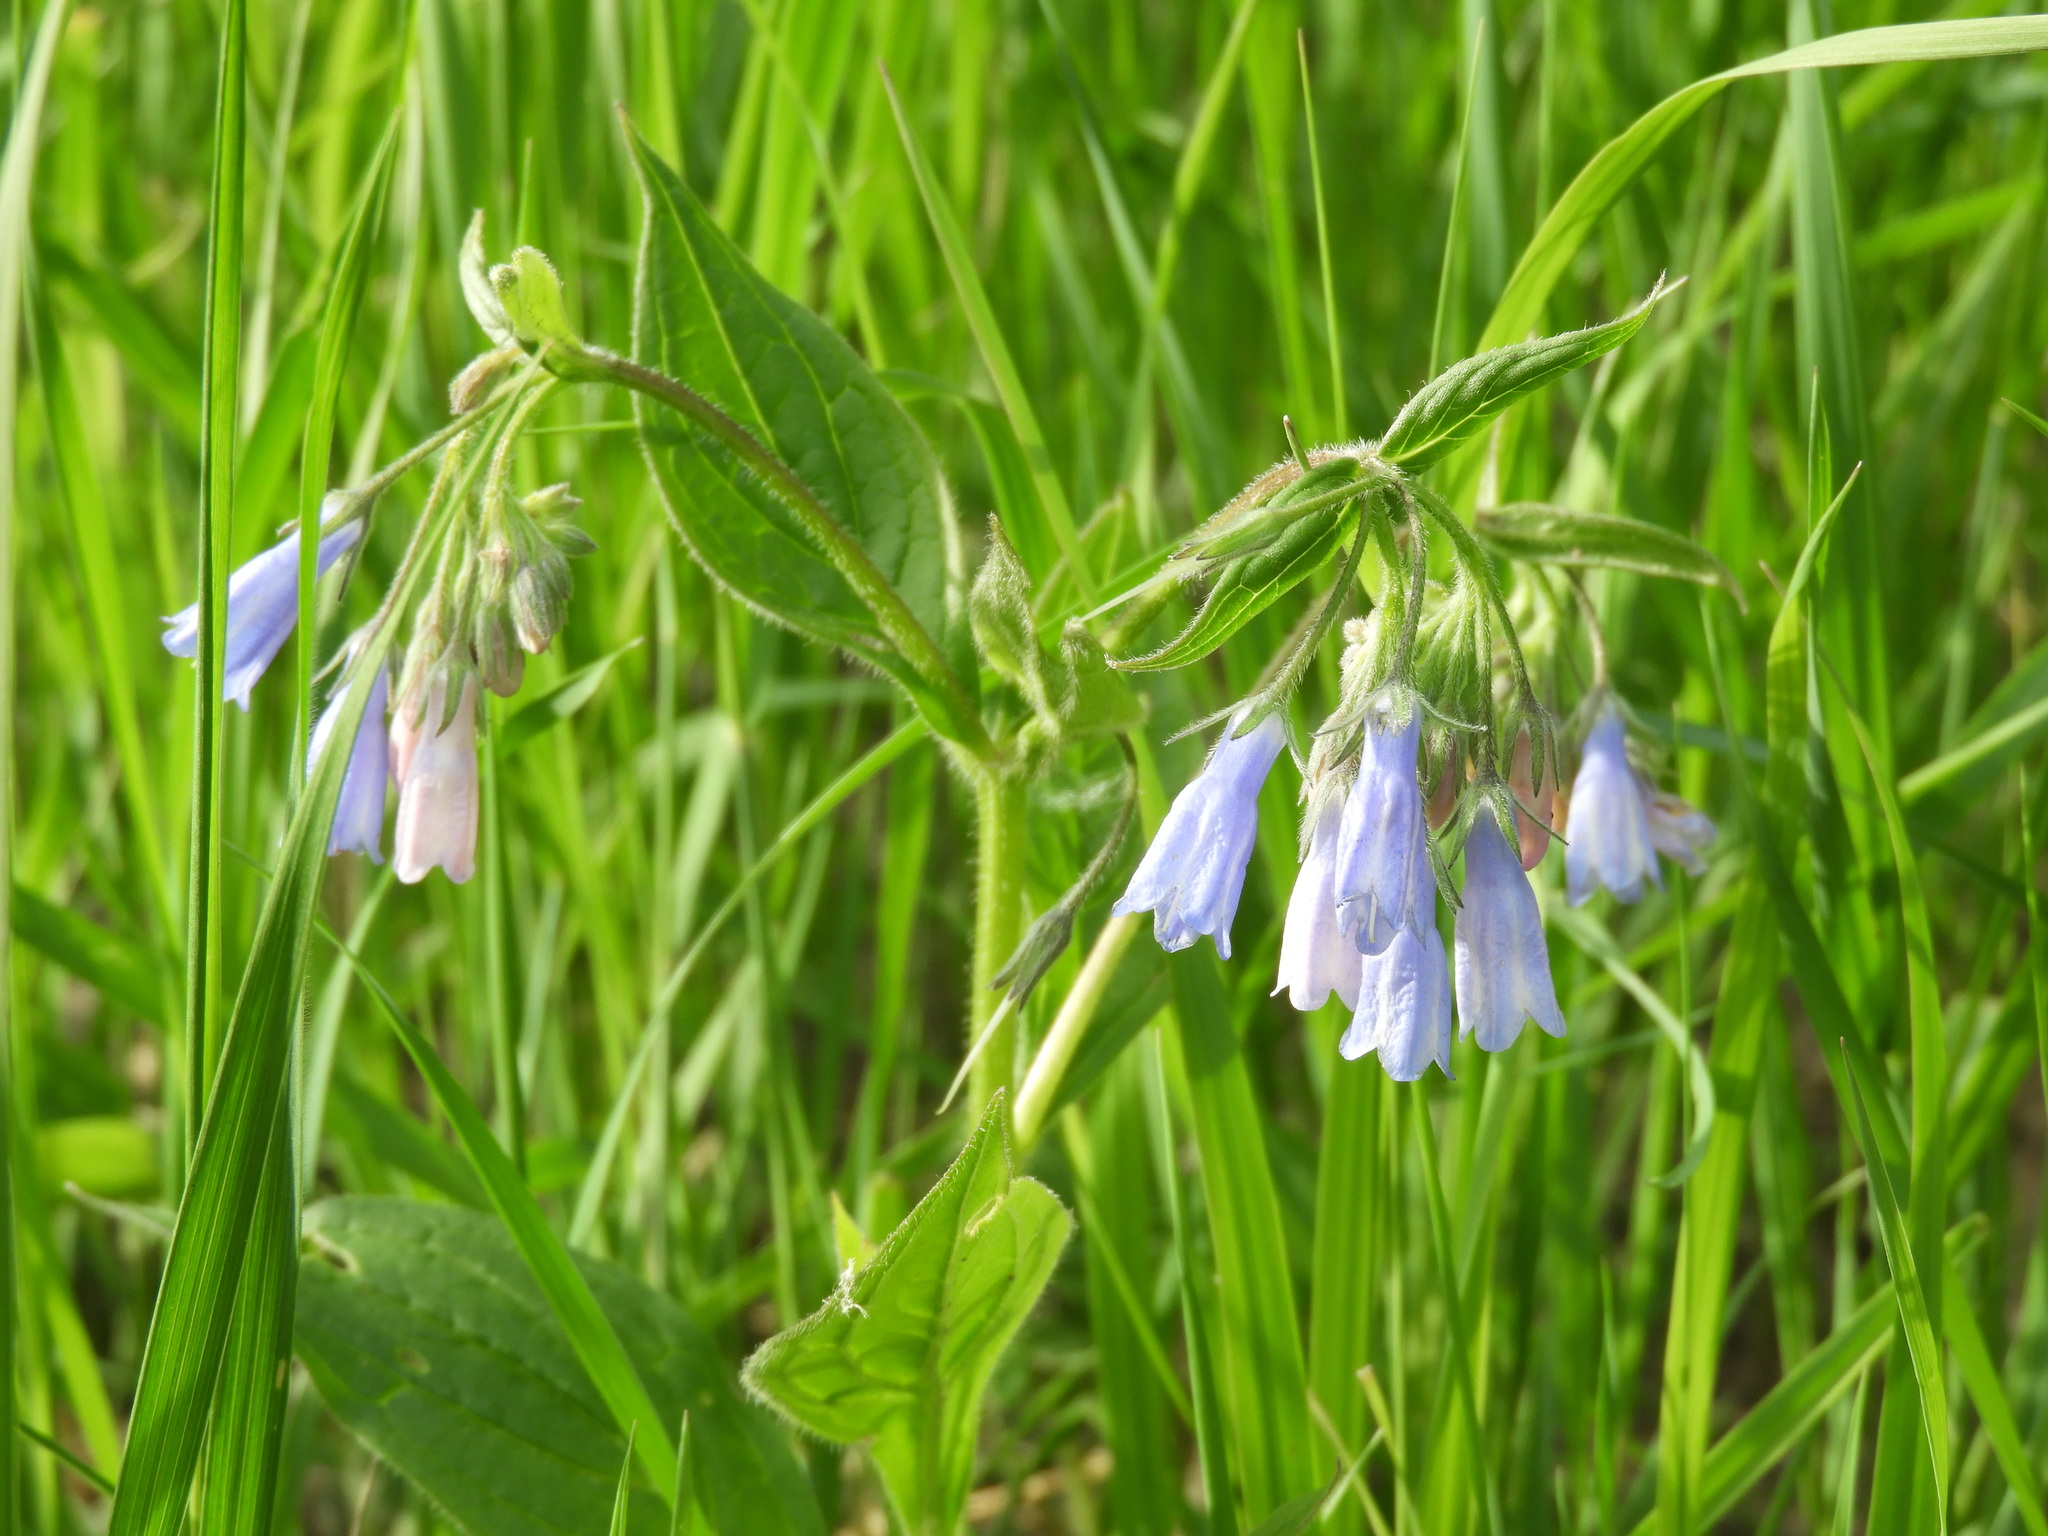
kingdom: Plantae
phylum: Tracheophyta
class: Magnoliopsida
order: Boraginales
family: Boraginaceae
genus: Mertensia
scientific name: Mertensia paniculata
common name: Panicled bluebells
